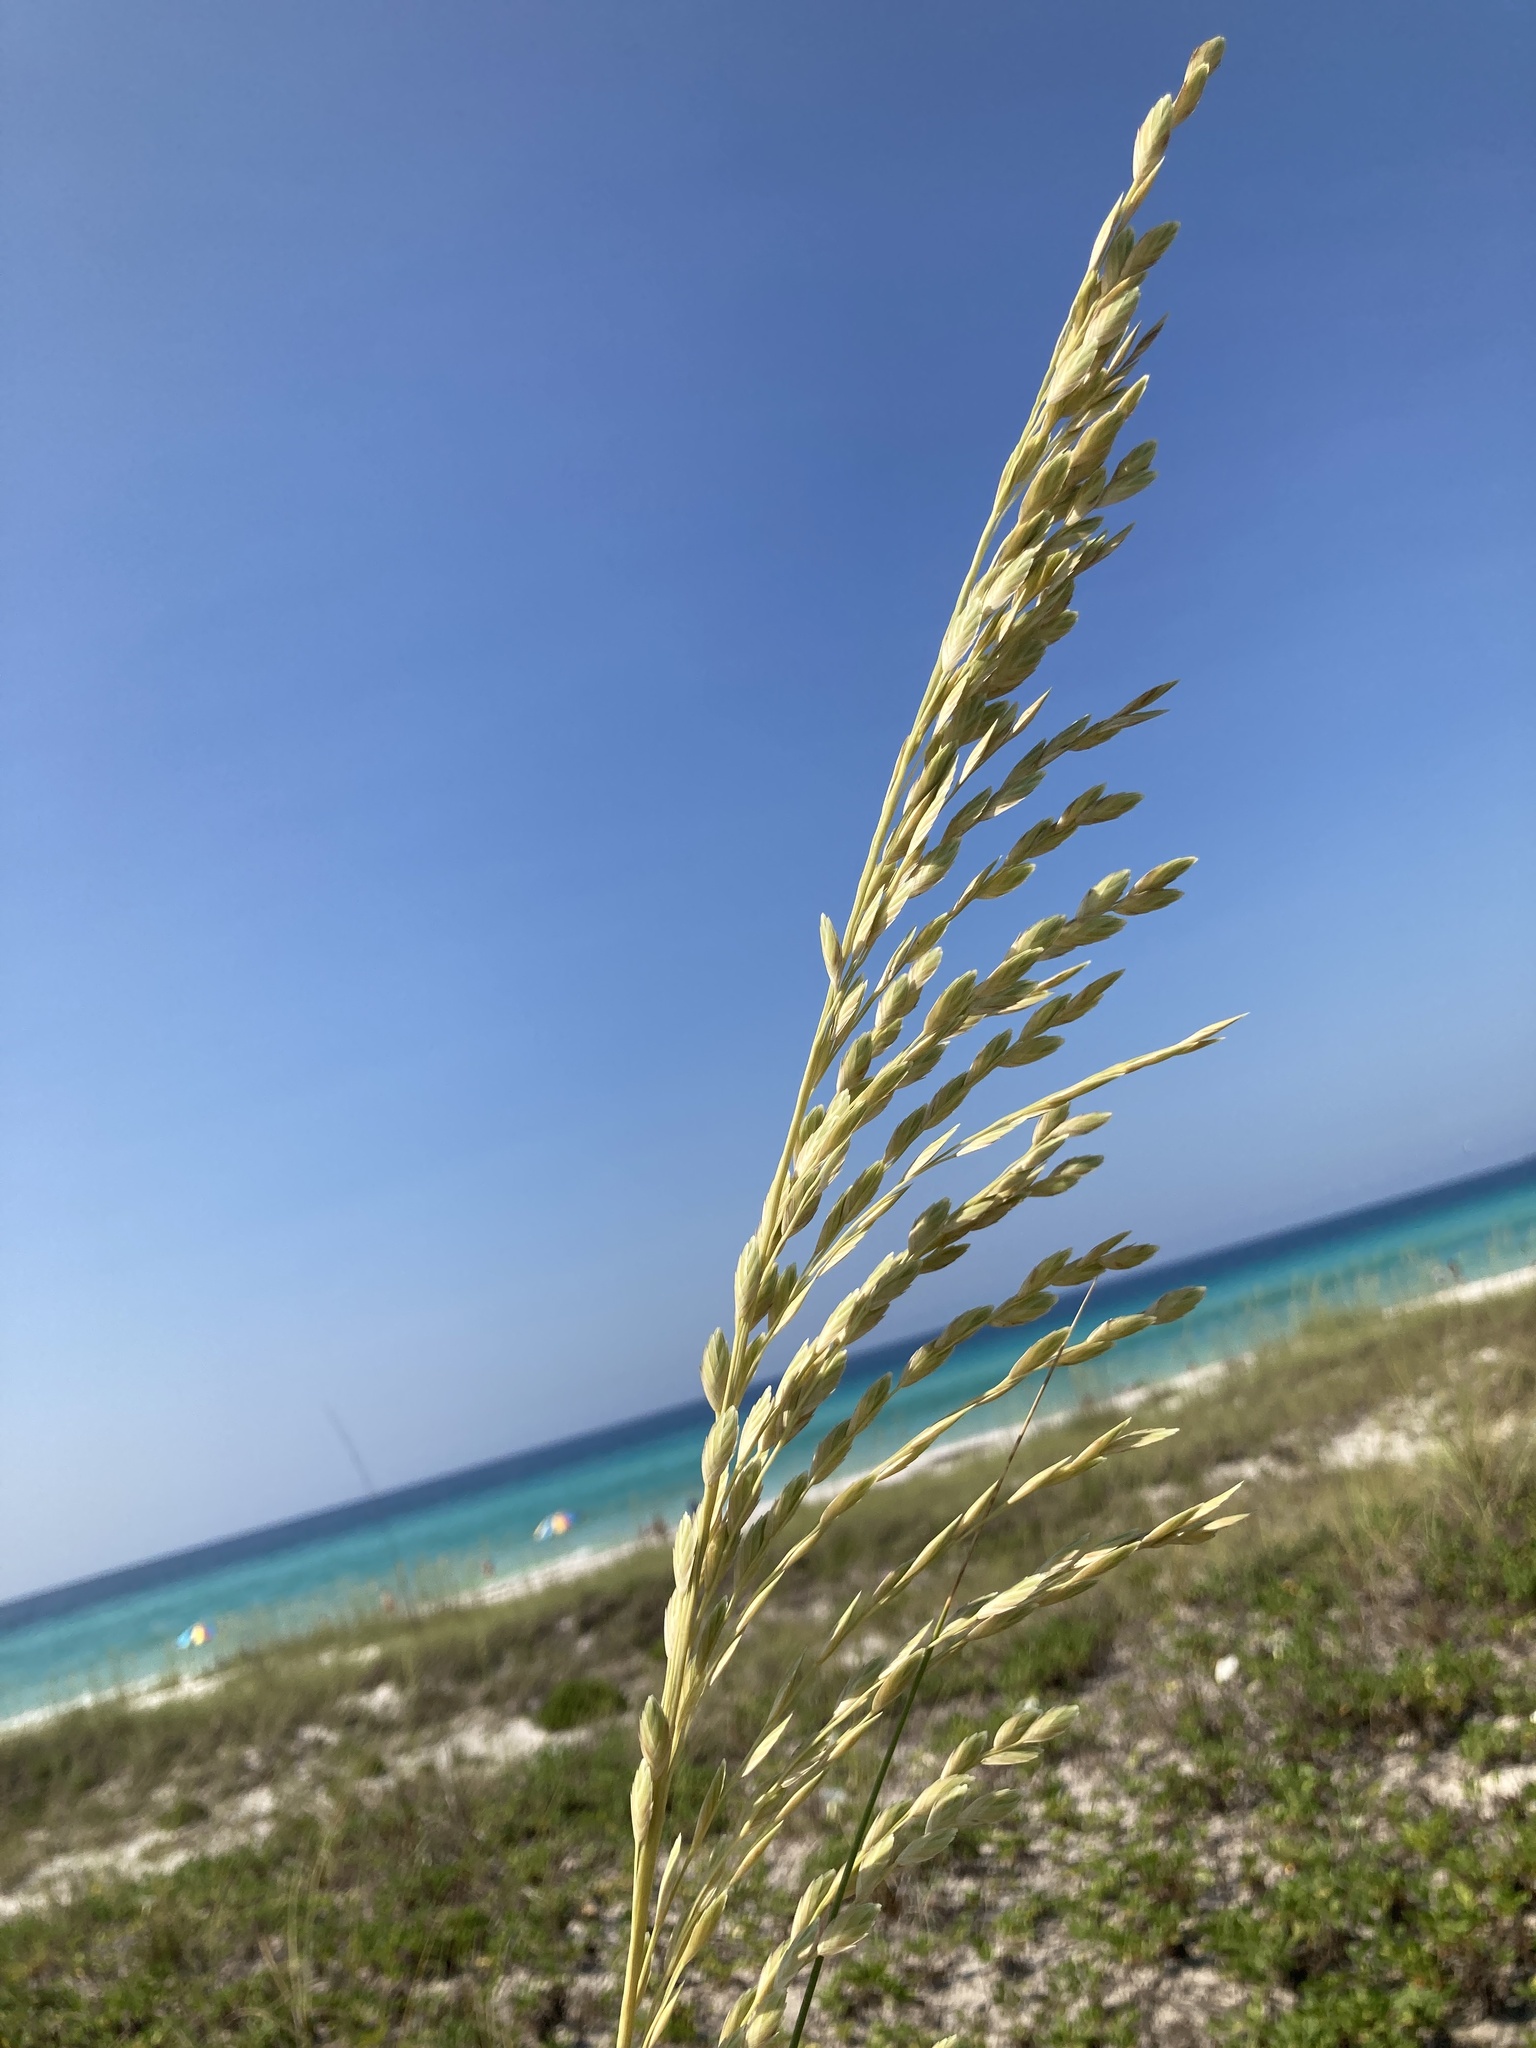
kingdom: Plantae
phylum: Tracheophyta
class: Liliopsida
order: Poales
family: Poaceae
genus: Uniola
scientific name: Uniola paniculata
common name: Seaside-oats
